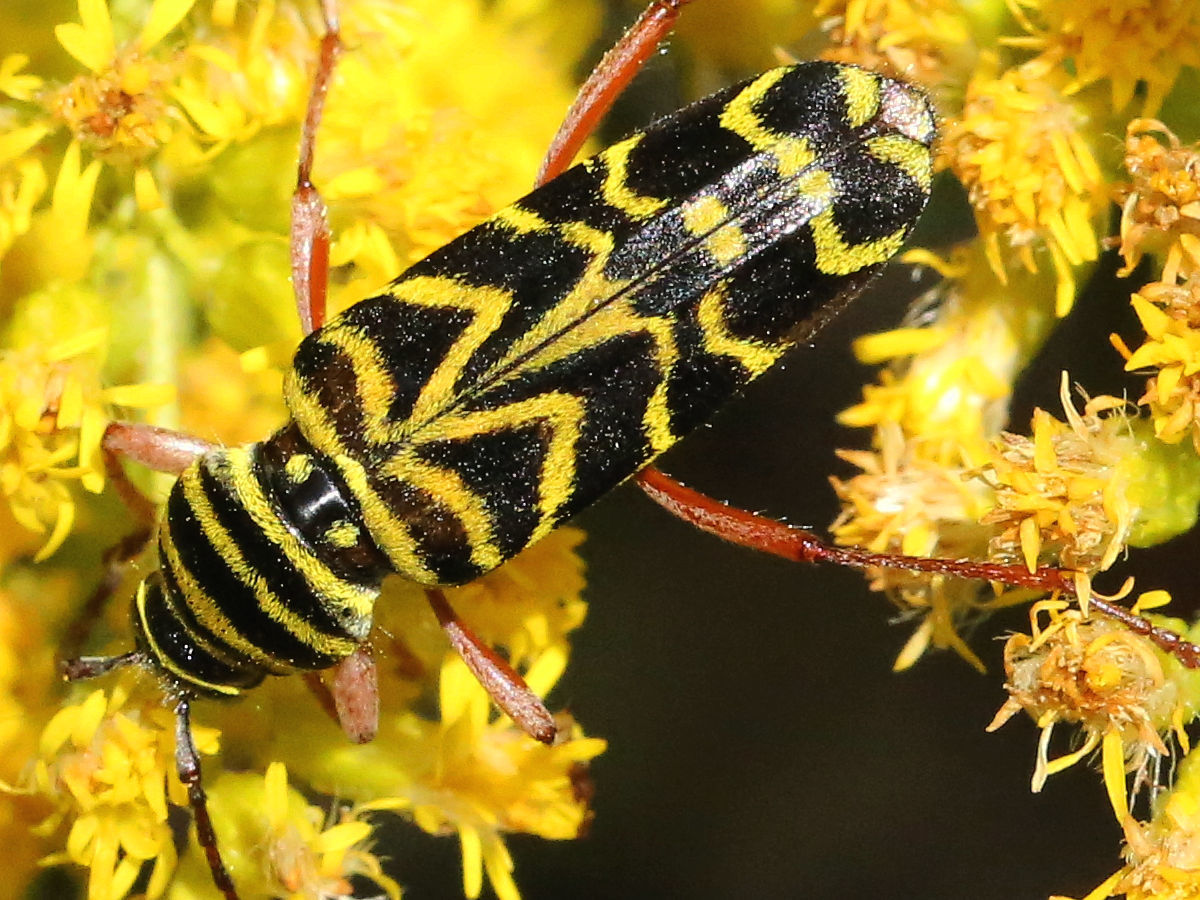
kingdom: Animalia
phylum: Arthropoda
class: Insecta
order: Coleoptera
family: Cerambycidae
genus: Megacyllene
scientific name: Megacyllene robiniae
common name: Locust borer
